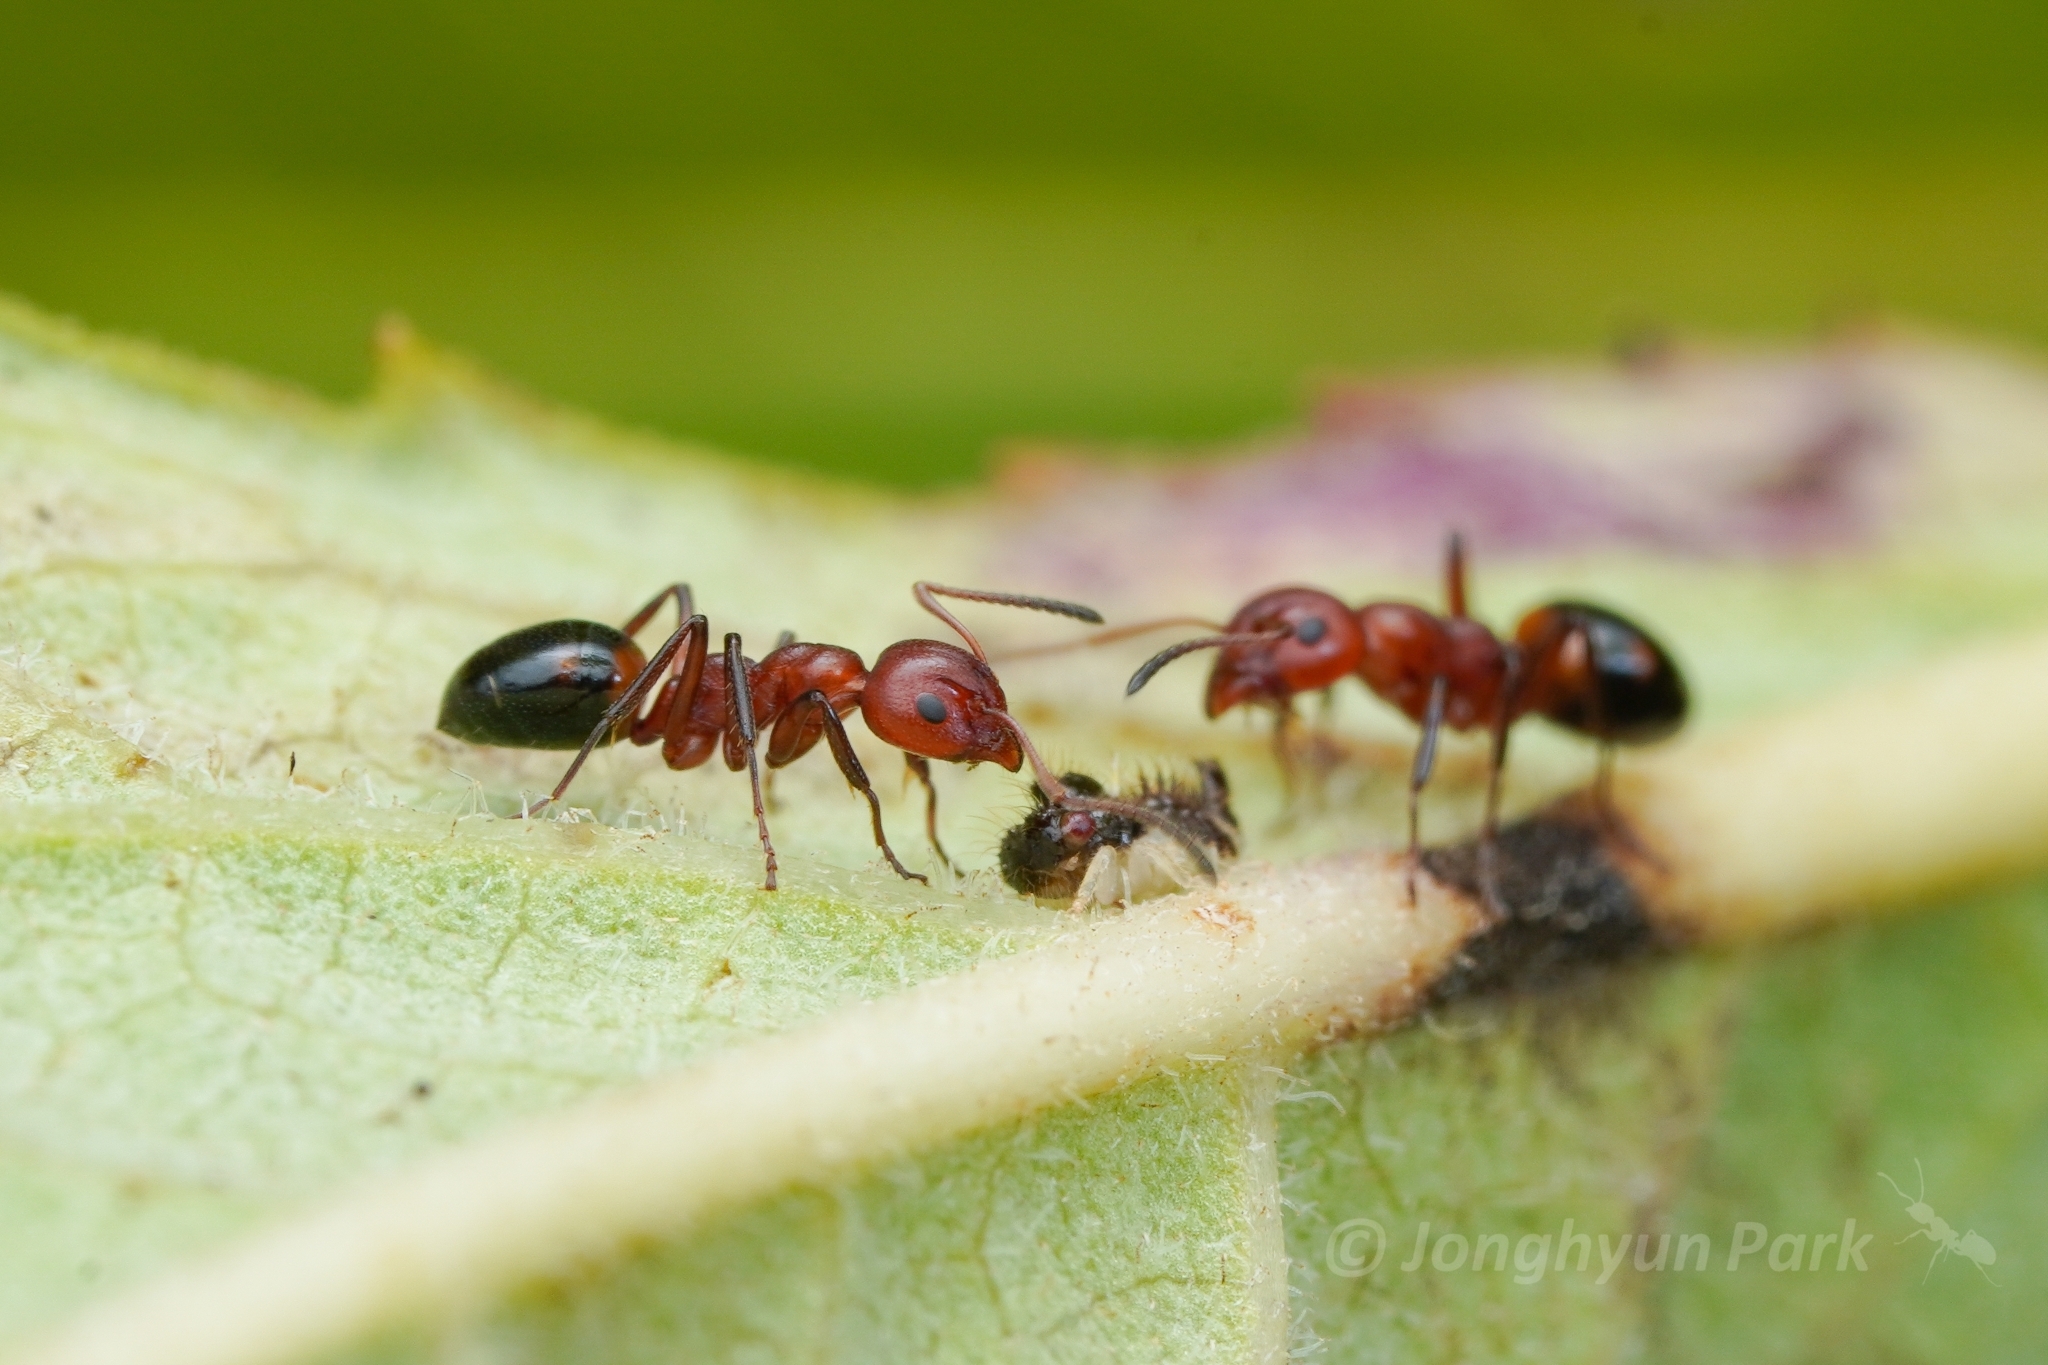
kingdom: Animalia
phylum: Arthropoda
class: Insecta
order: Hymenoptera
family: Formicidae
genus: Dolichoderus
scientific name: Dolichoderus mariae
